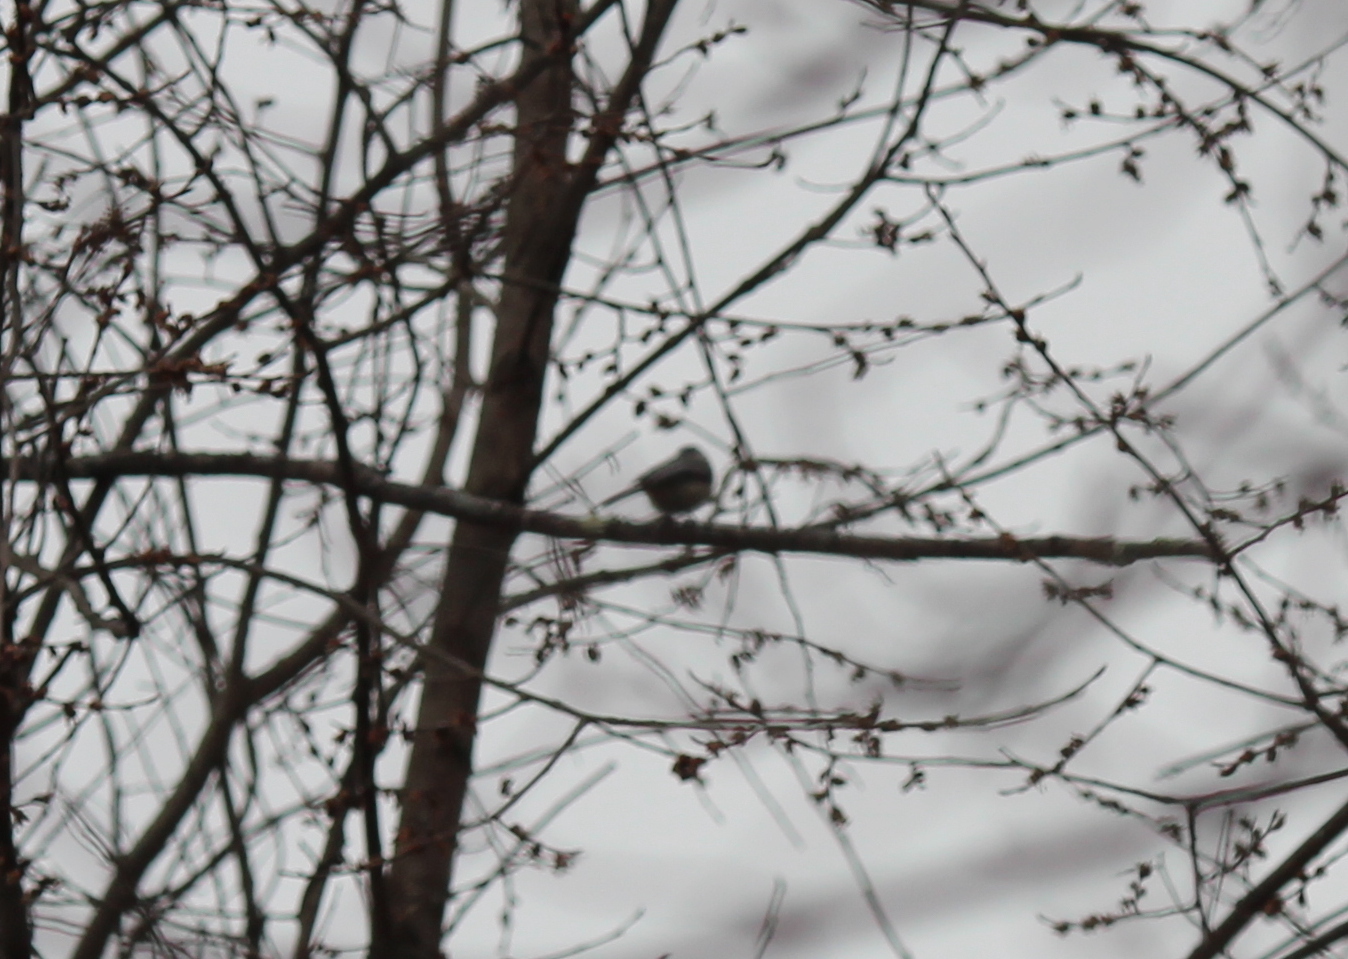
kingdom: Animalia
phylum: Chordata
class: Aves
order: Passeriformes
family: Paridae
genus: Poecile
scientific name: Poecile atricapillus
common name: Black-capped chickadee
